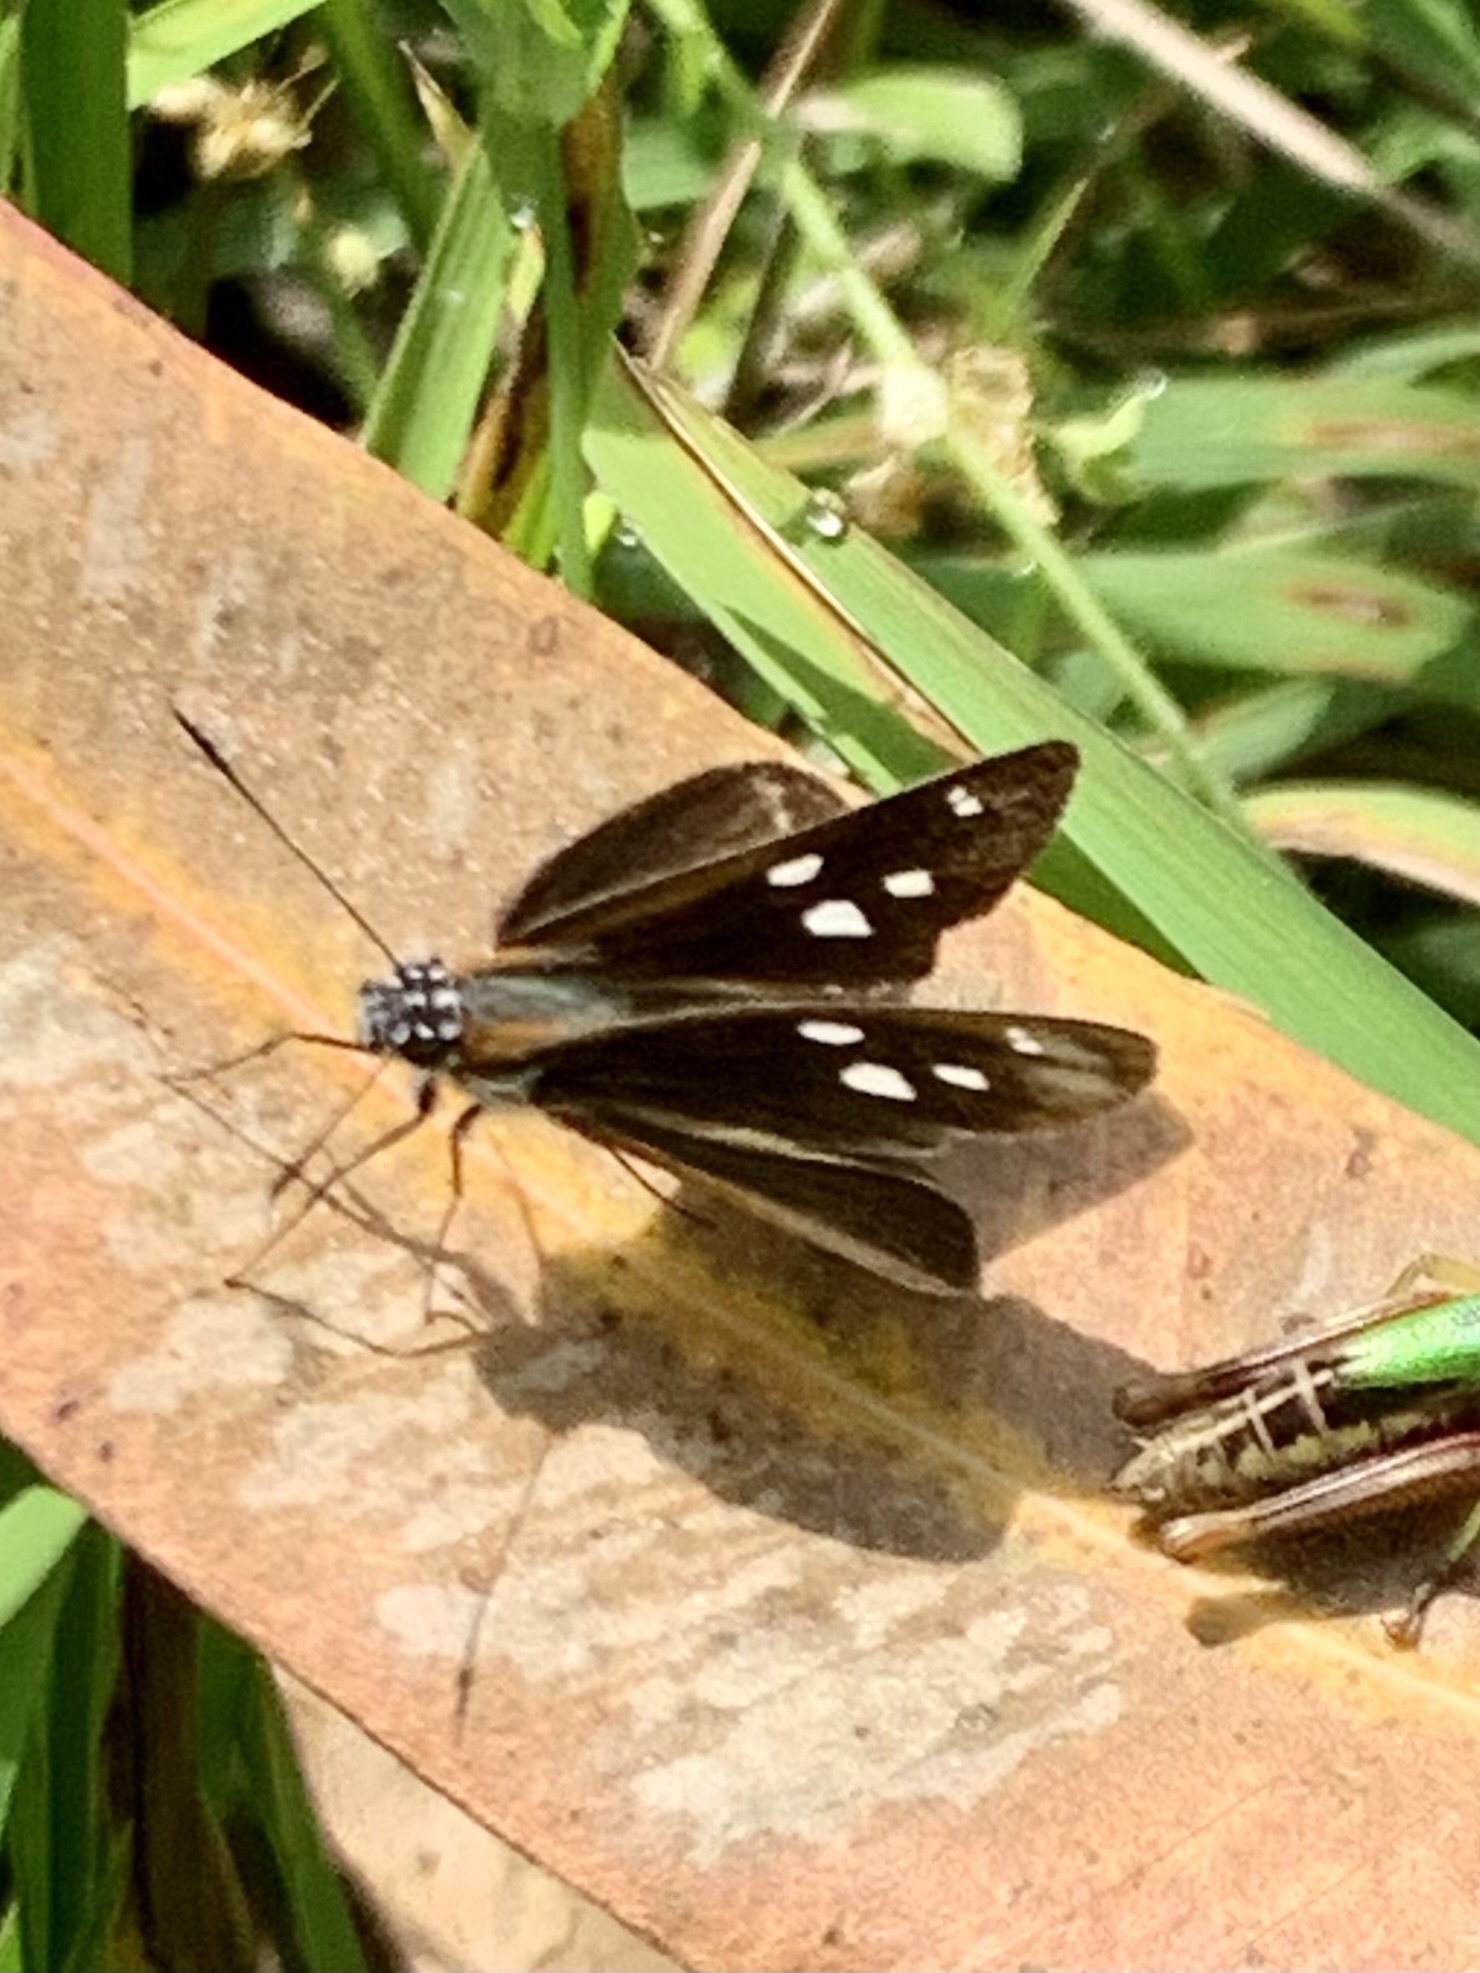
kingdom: Animalia
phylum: Arthropoda
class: Insecta
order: Lepidoptera
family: Hesperiidae
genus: Corra
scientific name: Corra
